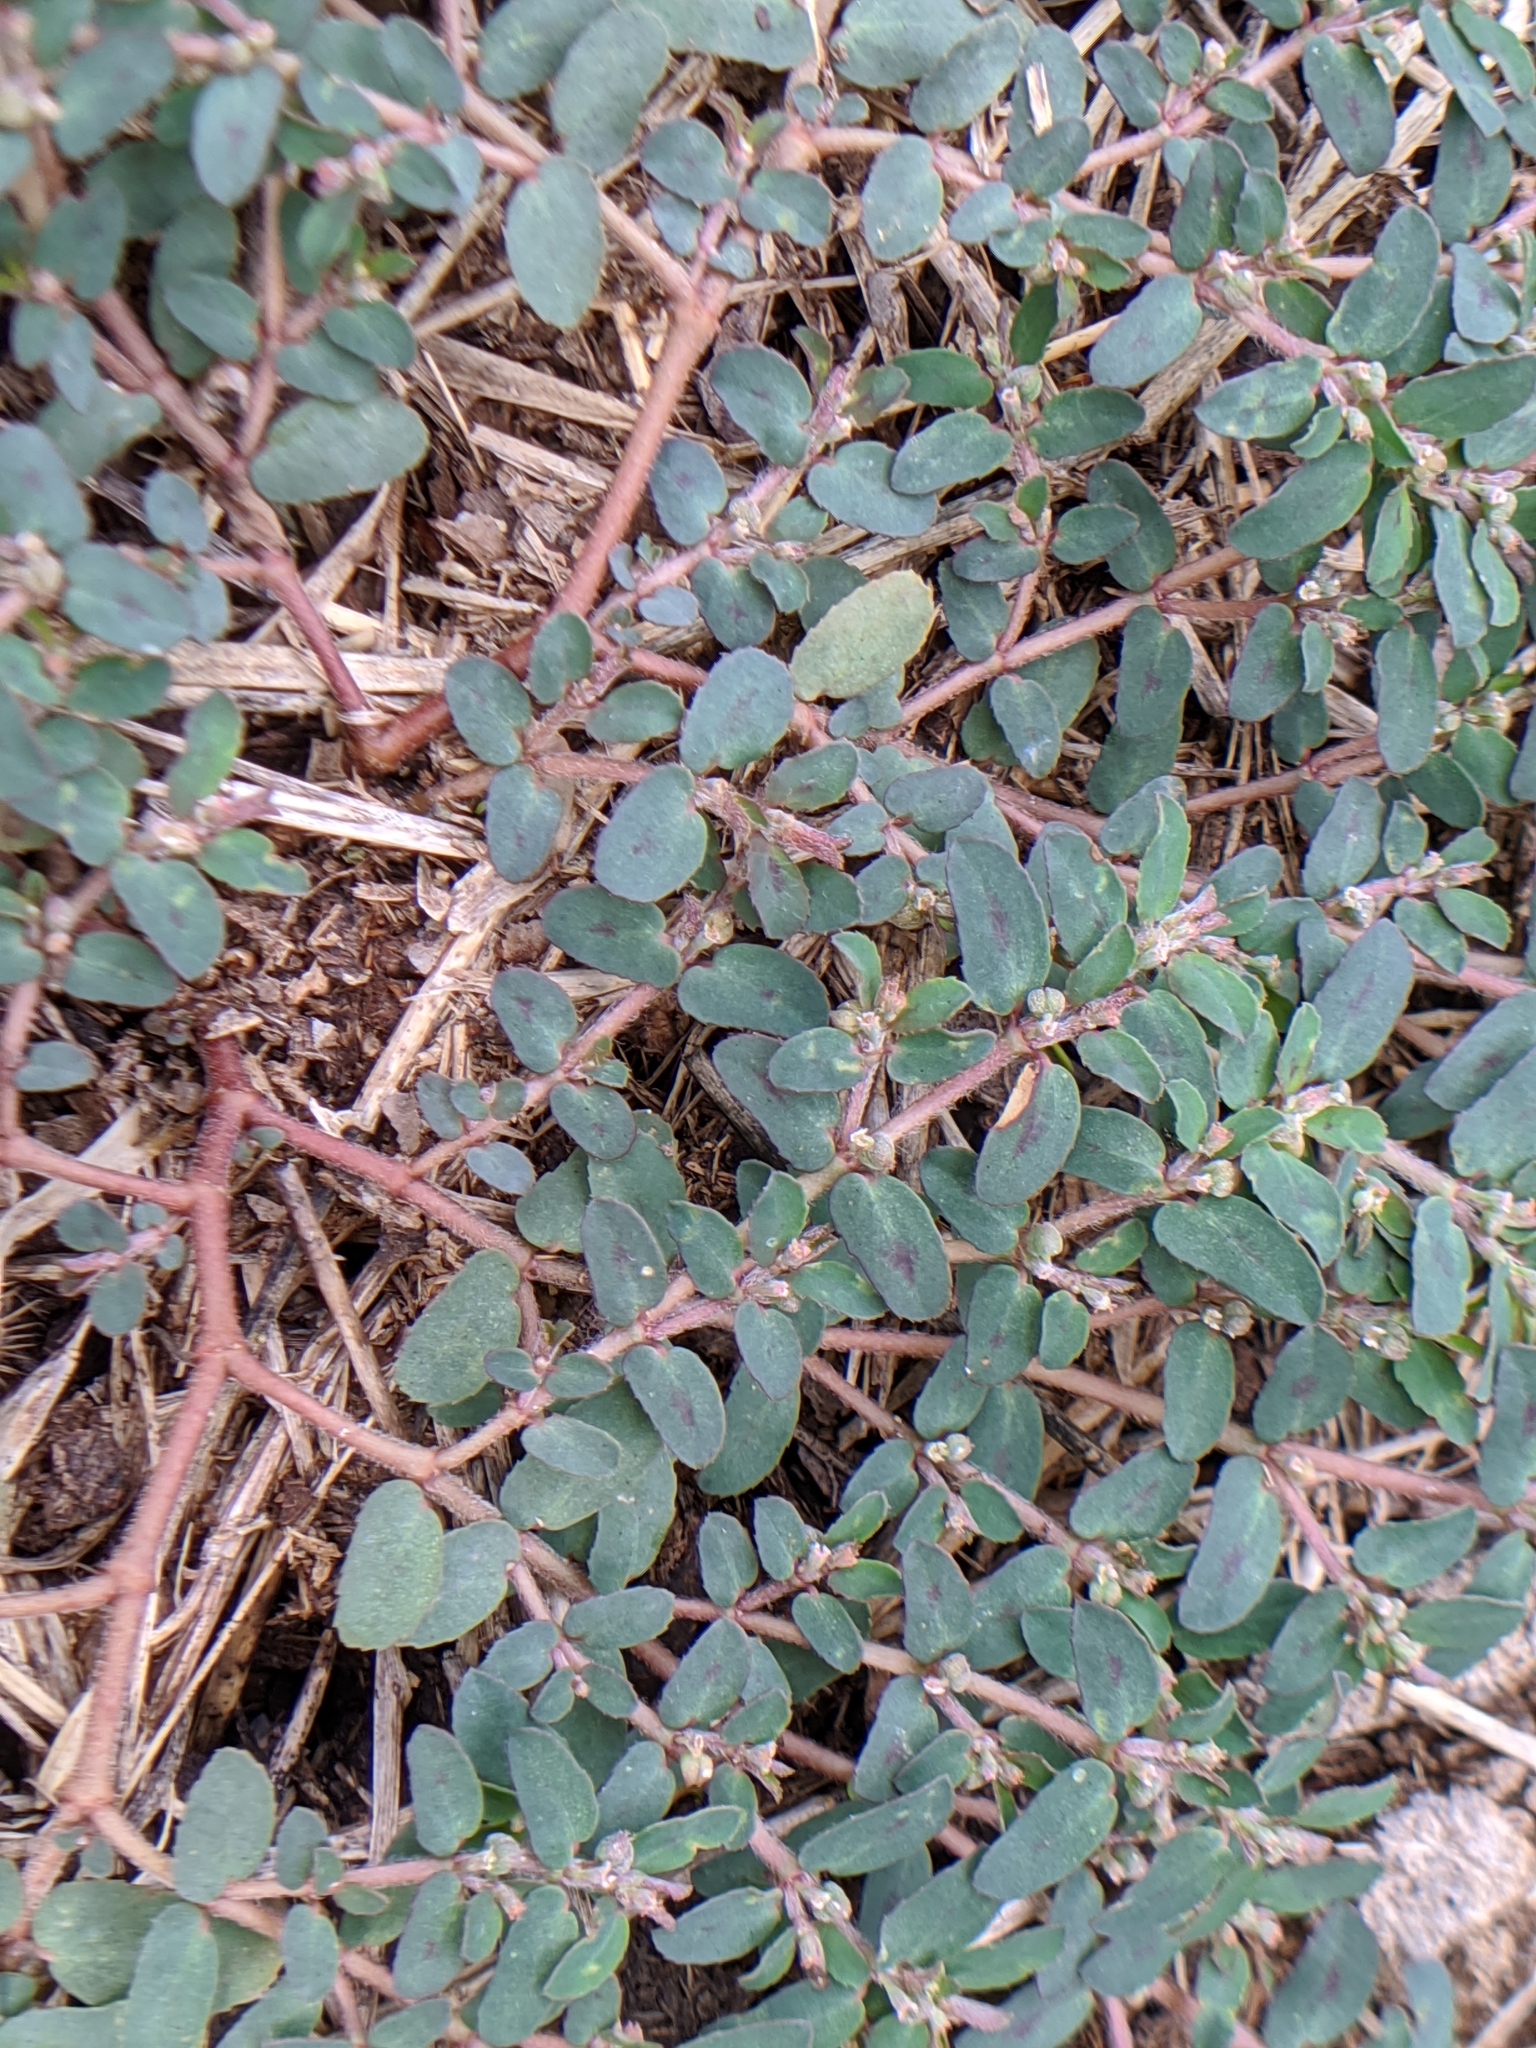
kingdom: Plantae
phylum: Tracheophyta
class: Magnoliopsida
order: Malpighiales
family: Euphorbiaceae
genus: Euphorbia
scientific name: Euphorbia maculata
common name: Spotted spurge
